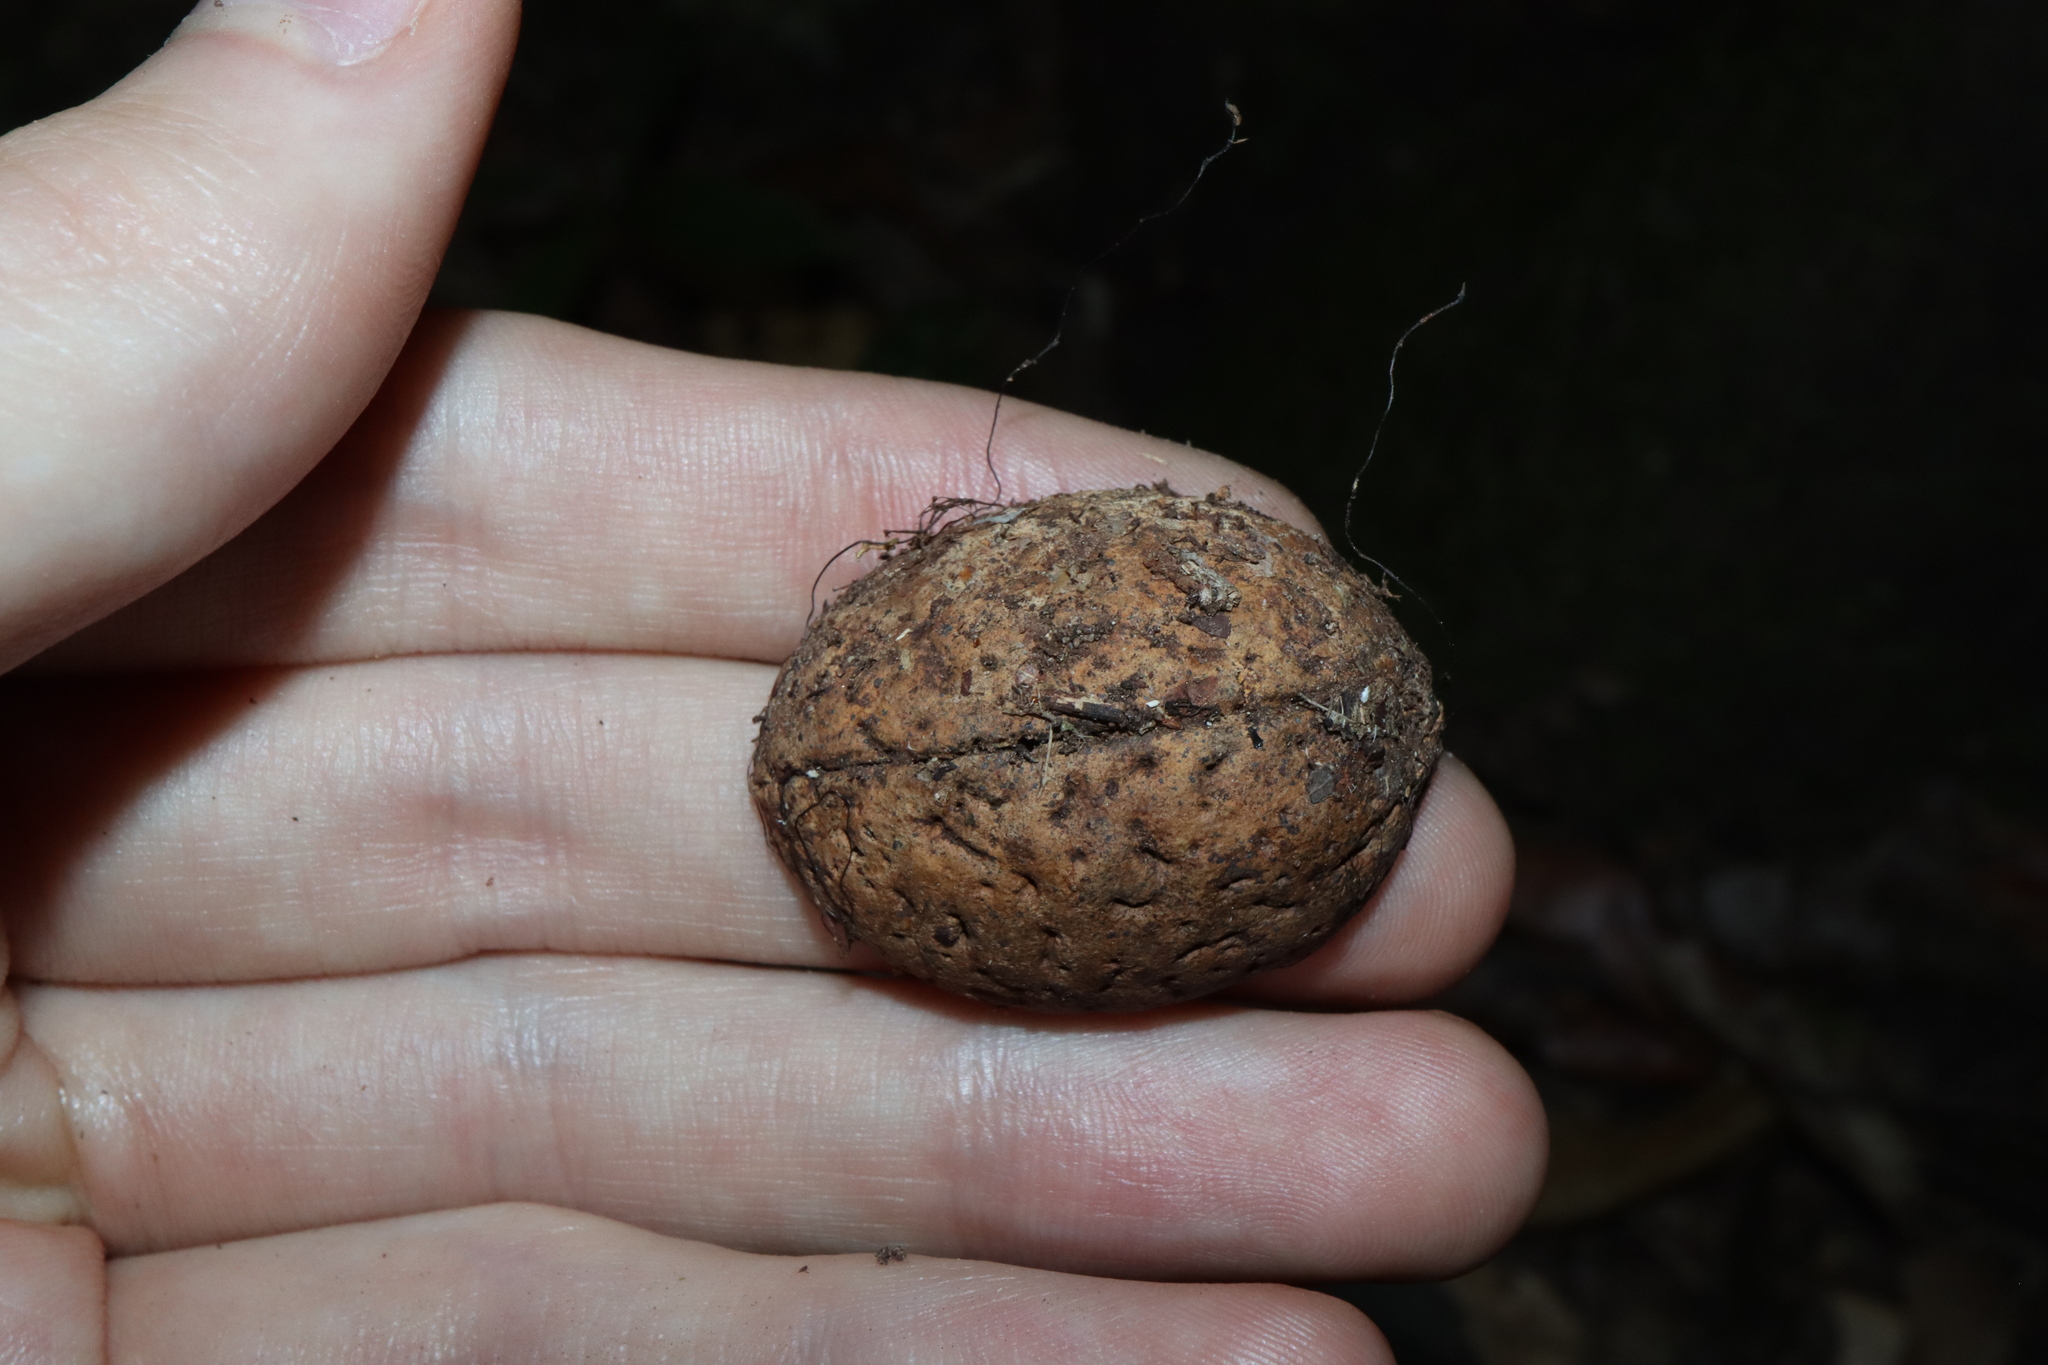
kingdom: Plantae
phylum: Tracheophyta
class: Magnoliopsida
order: Oxalidales
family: Elaeocarpaceae
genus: Elaeocarpus
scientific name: Elaeocarpus bancroftii
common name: Johnstone river-almond
